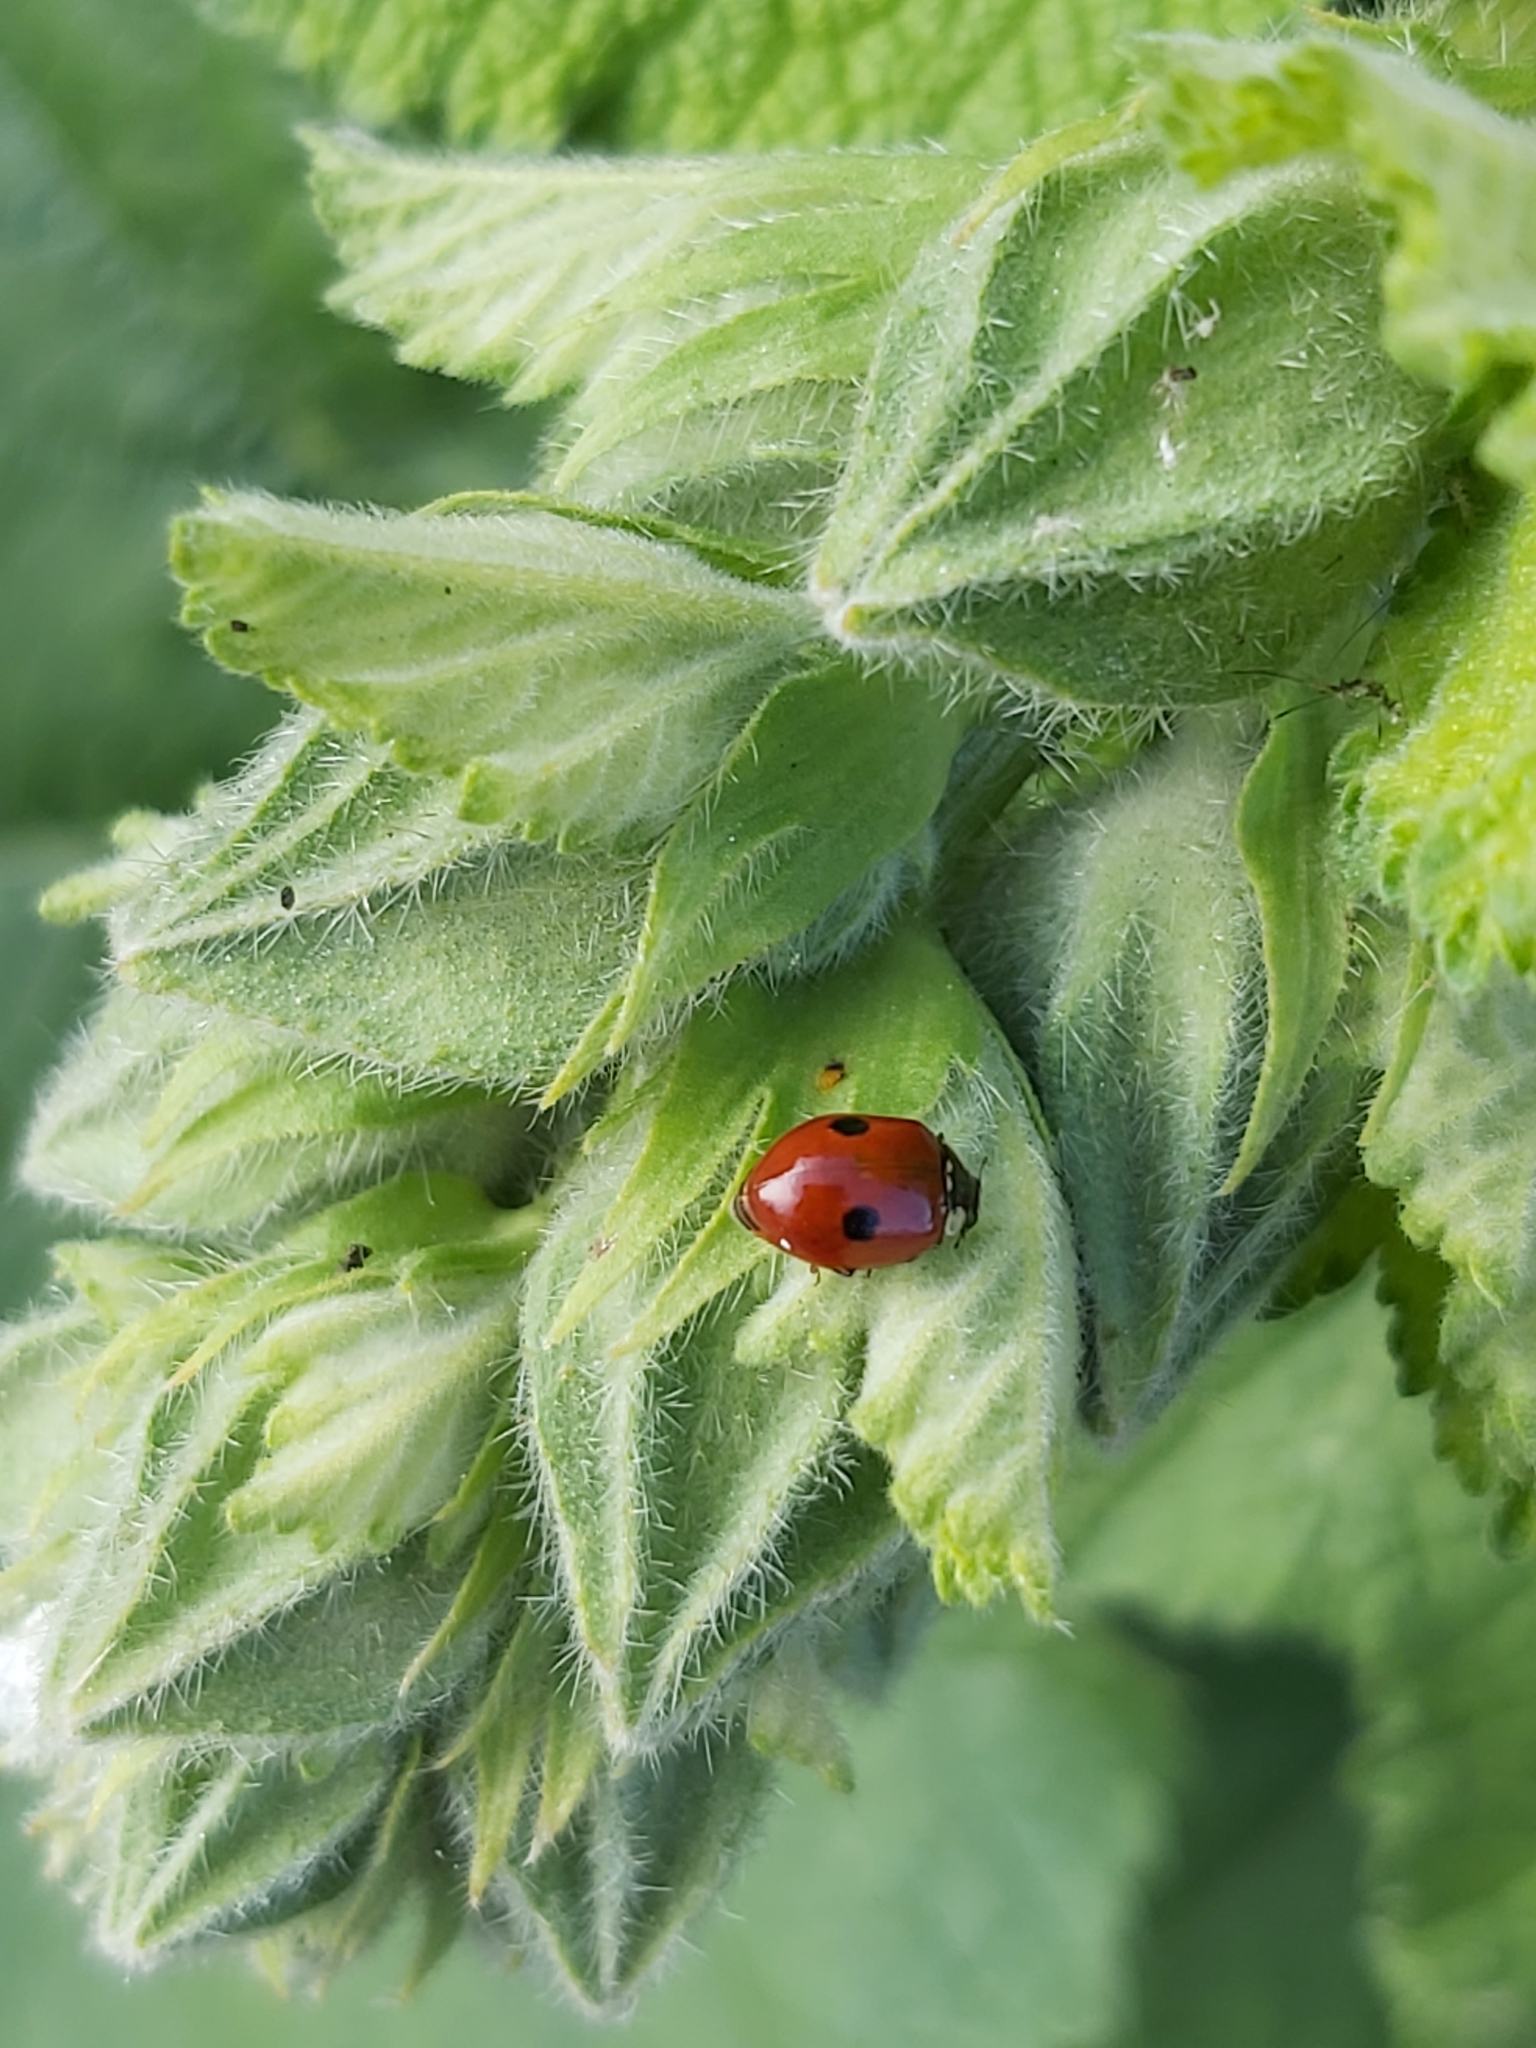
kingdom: Animalia
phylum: Arthropoda
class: Insecta
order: Coleoptera
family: Coccinellidae
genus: Adalia
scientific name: Adalia bipunctata
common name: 2-spot ladybird
